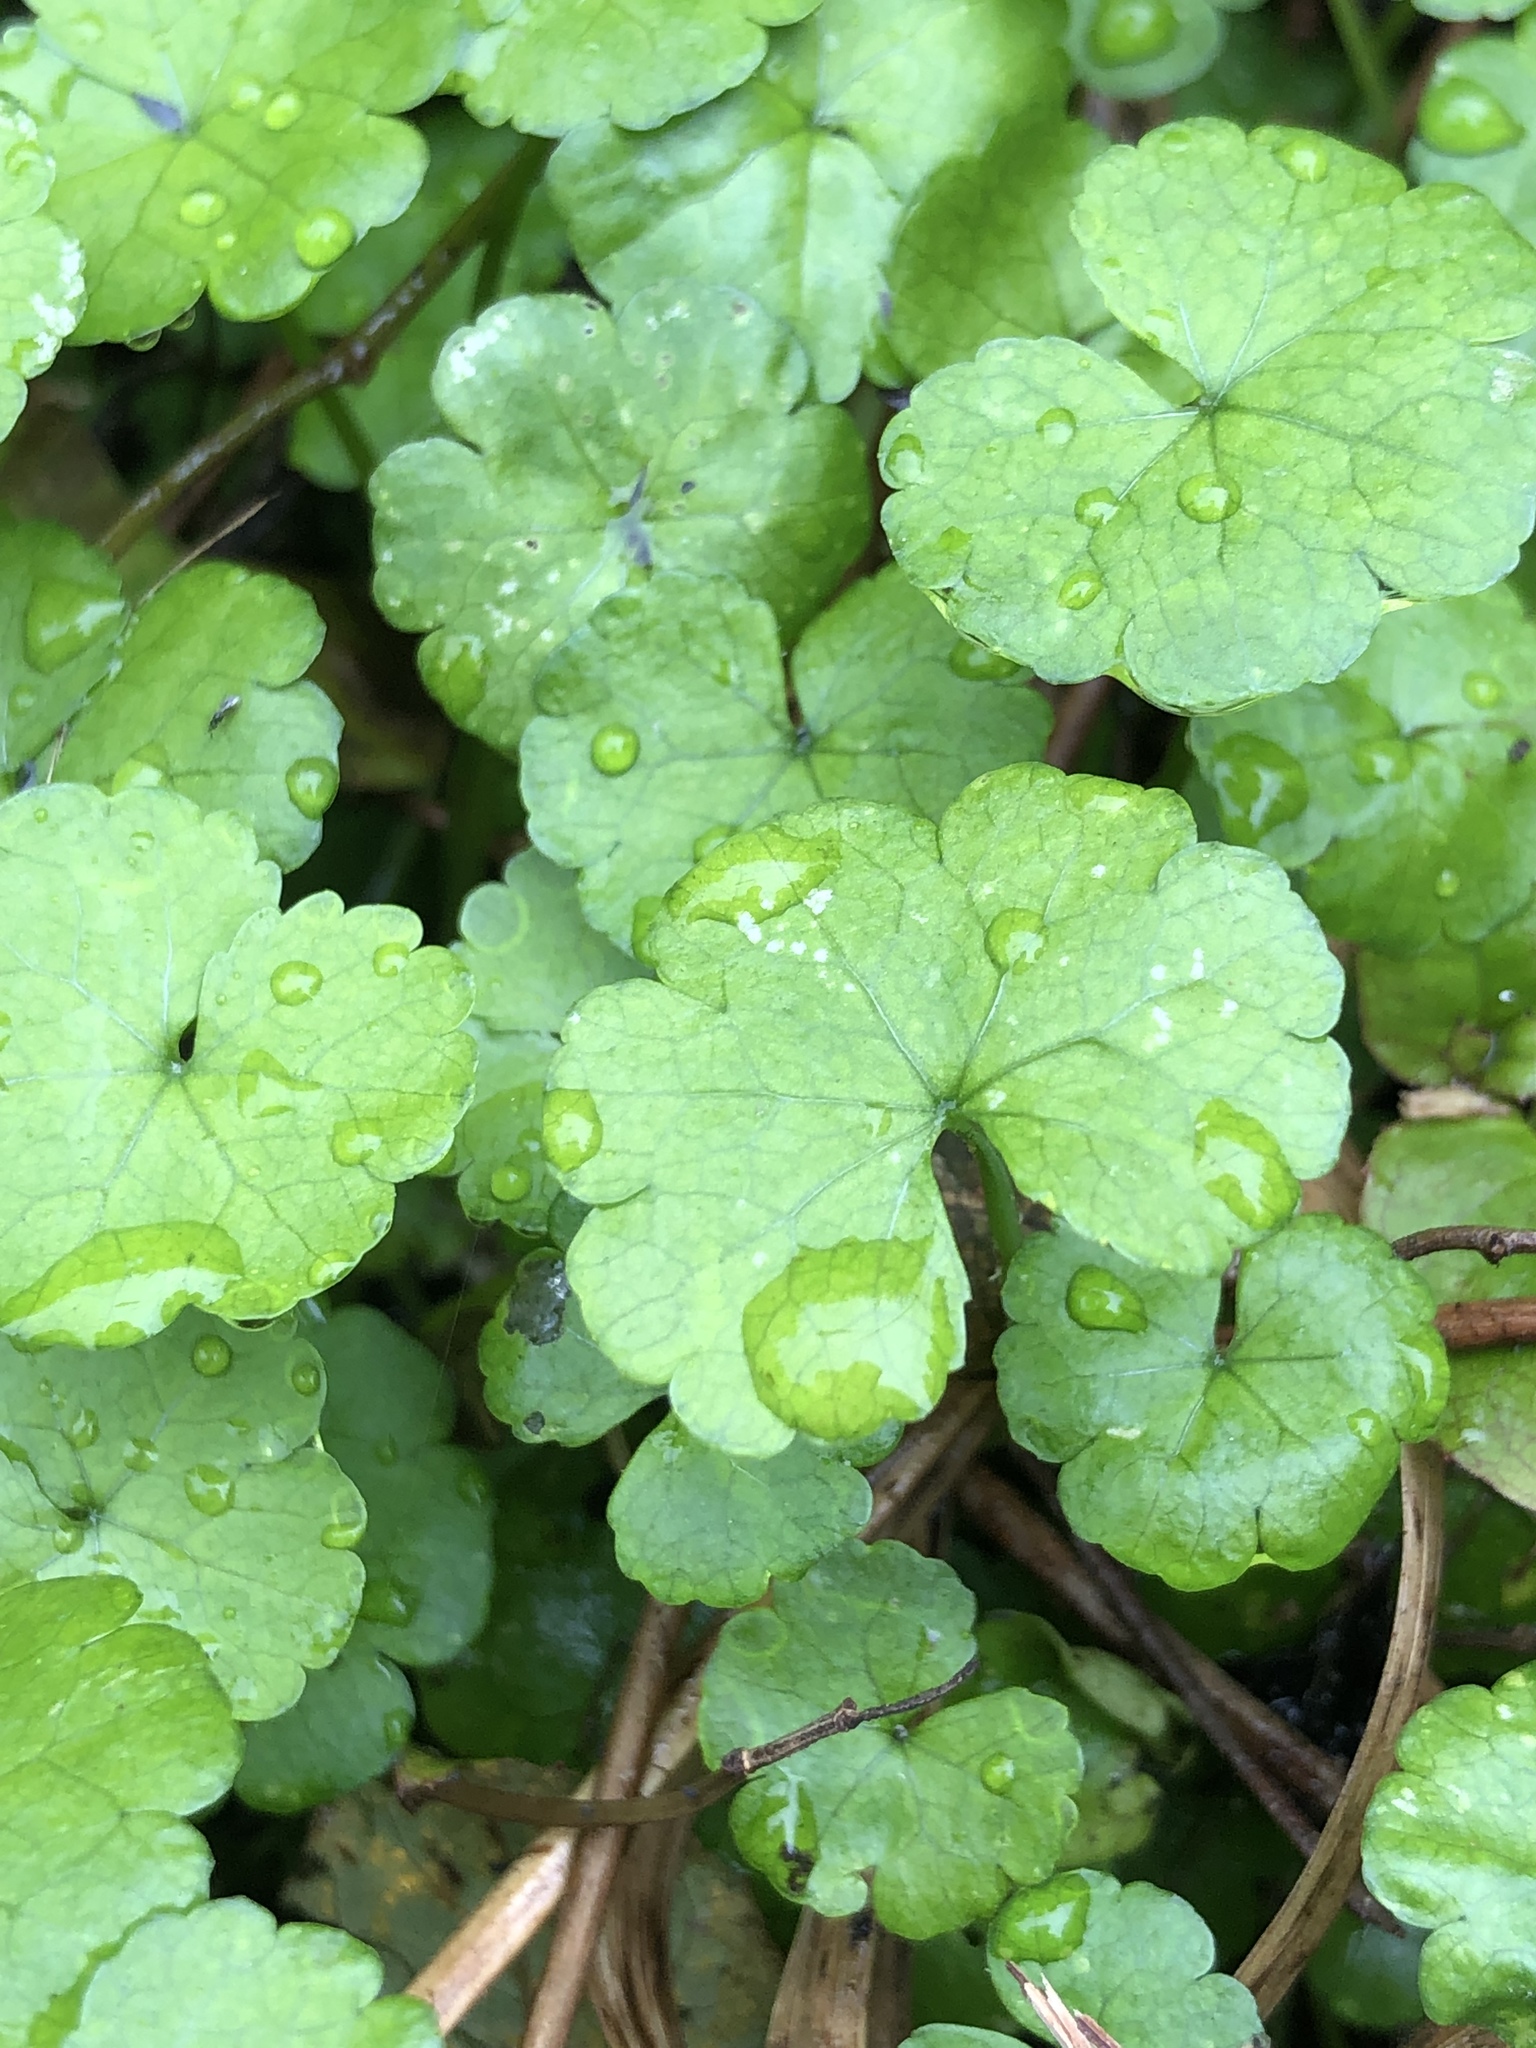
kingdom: Plantae
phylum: Tracheophyta
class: Magnoliopsida
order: Apiales
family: Araliaceae
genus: Hydrocotyle
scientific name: Hydrocotyle heteromeria
